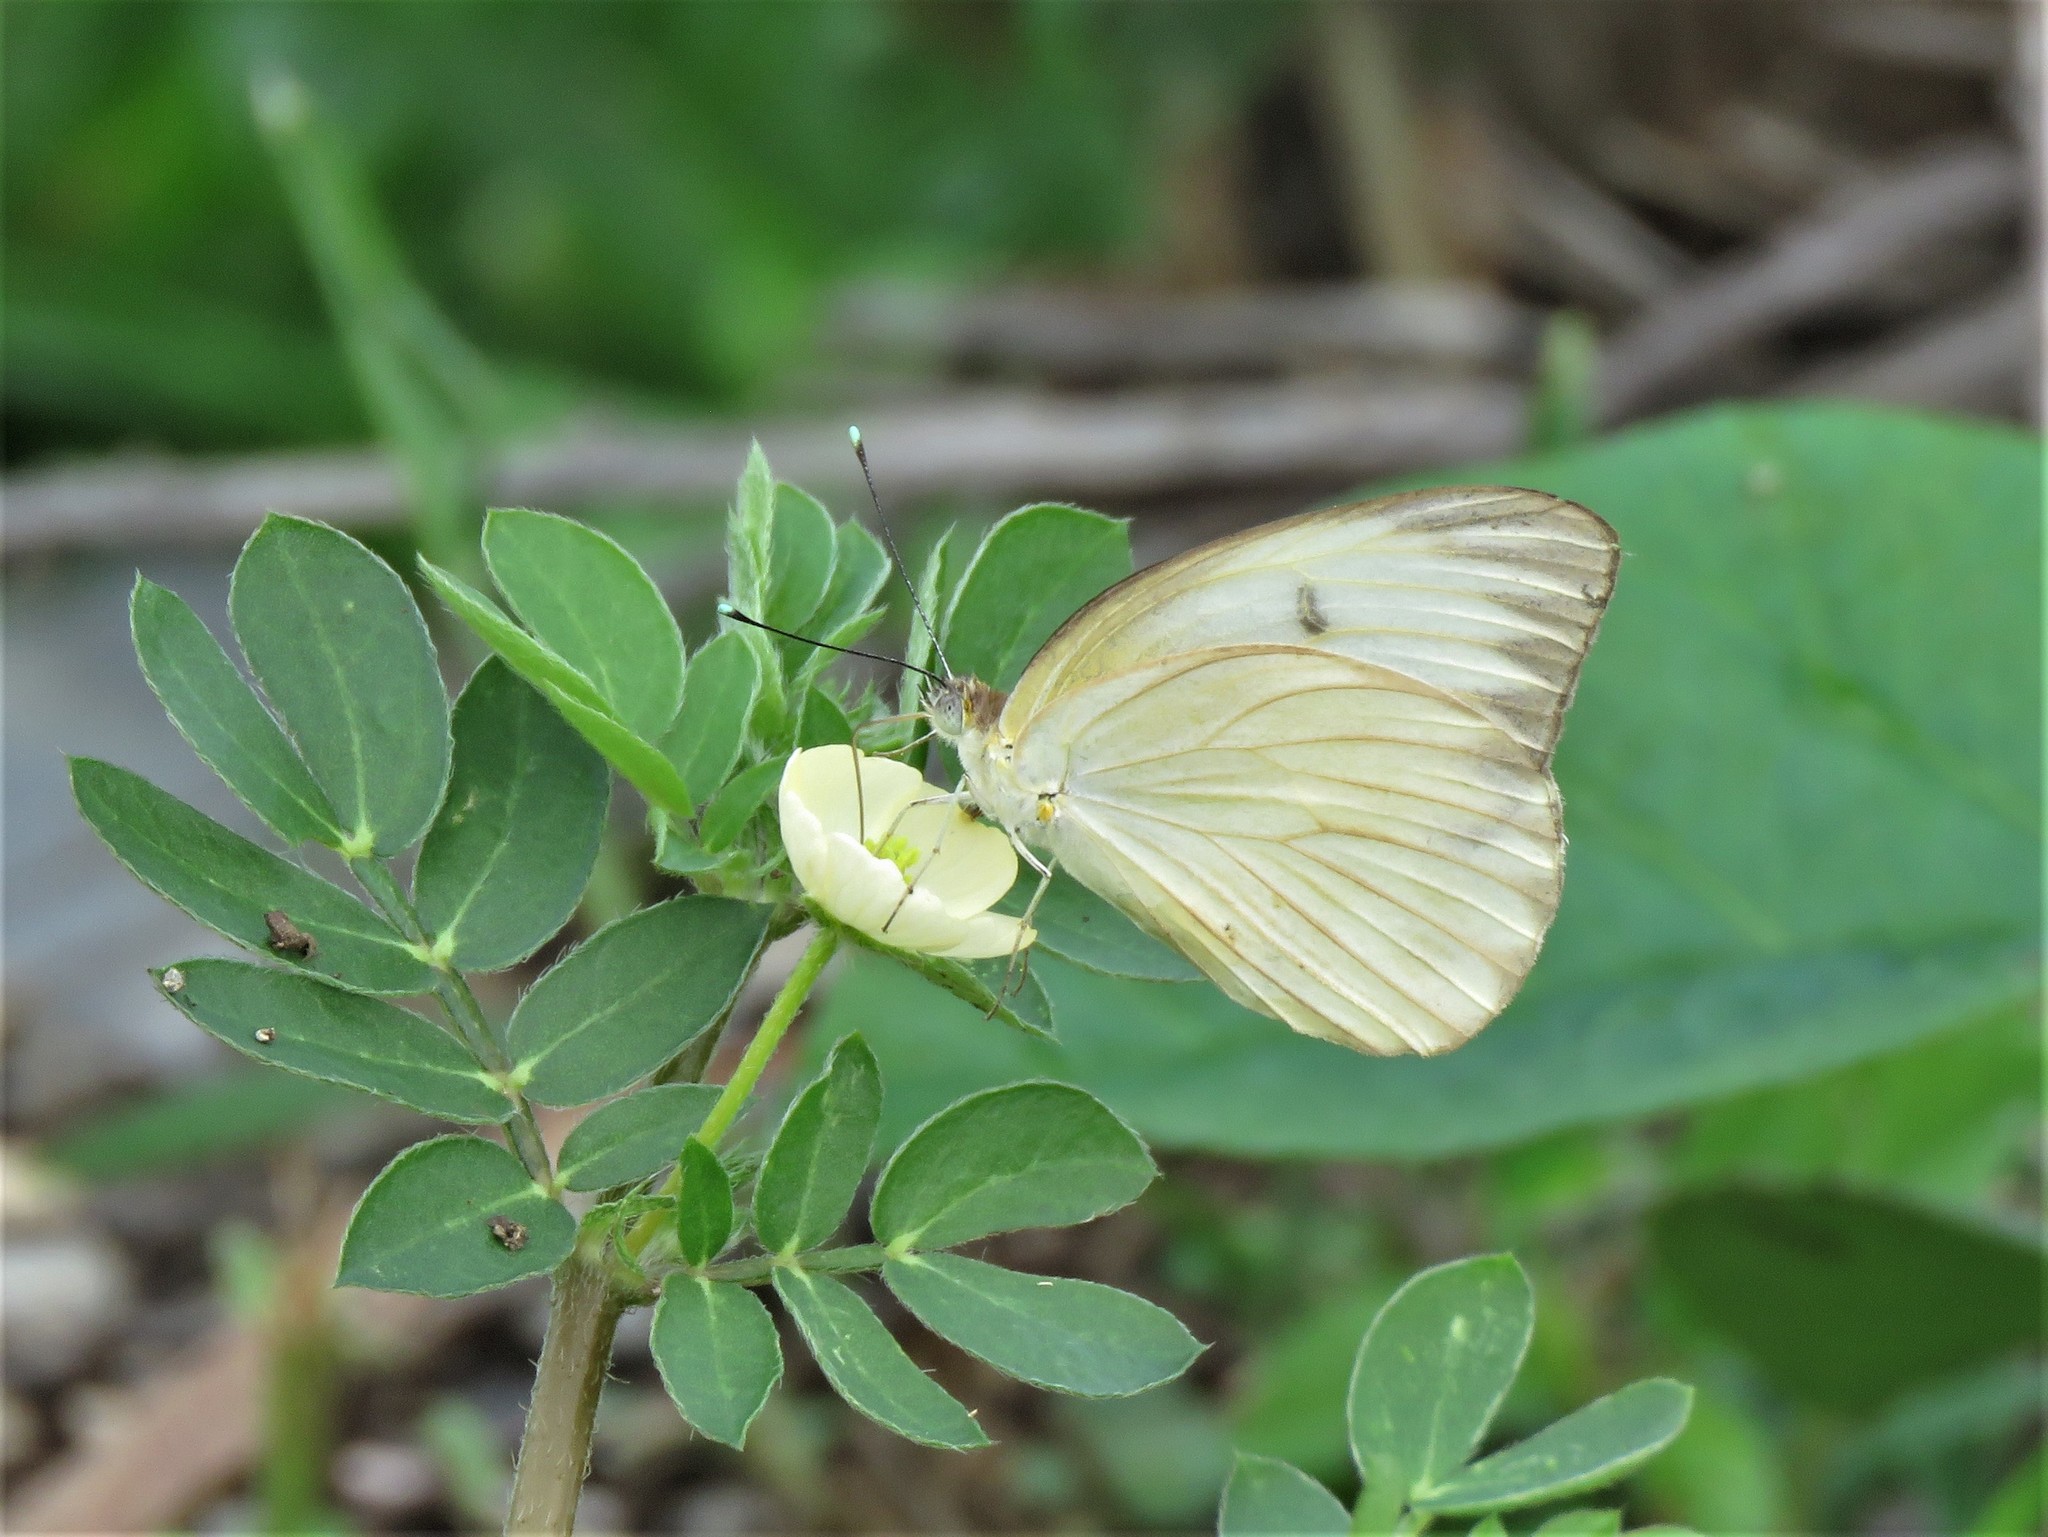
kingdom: Animalia
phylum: Arthropoda
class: Insecta
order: Lepidoptera
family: Pieridae
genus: Ascia
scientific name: Ascia monuste
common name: Great southern white
